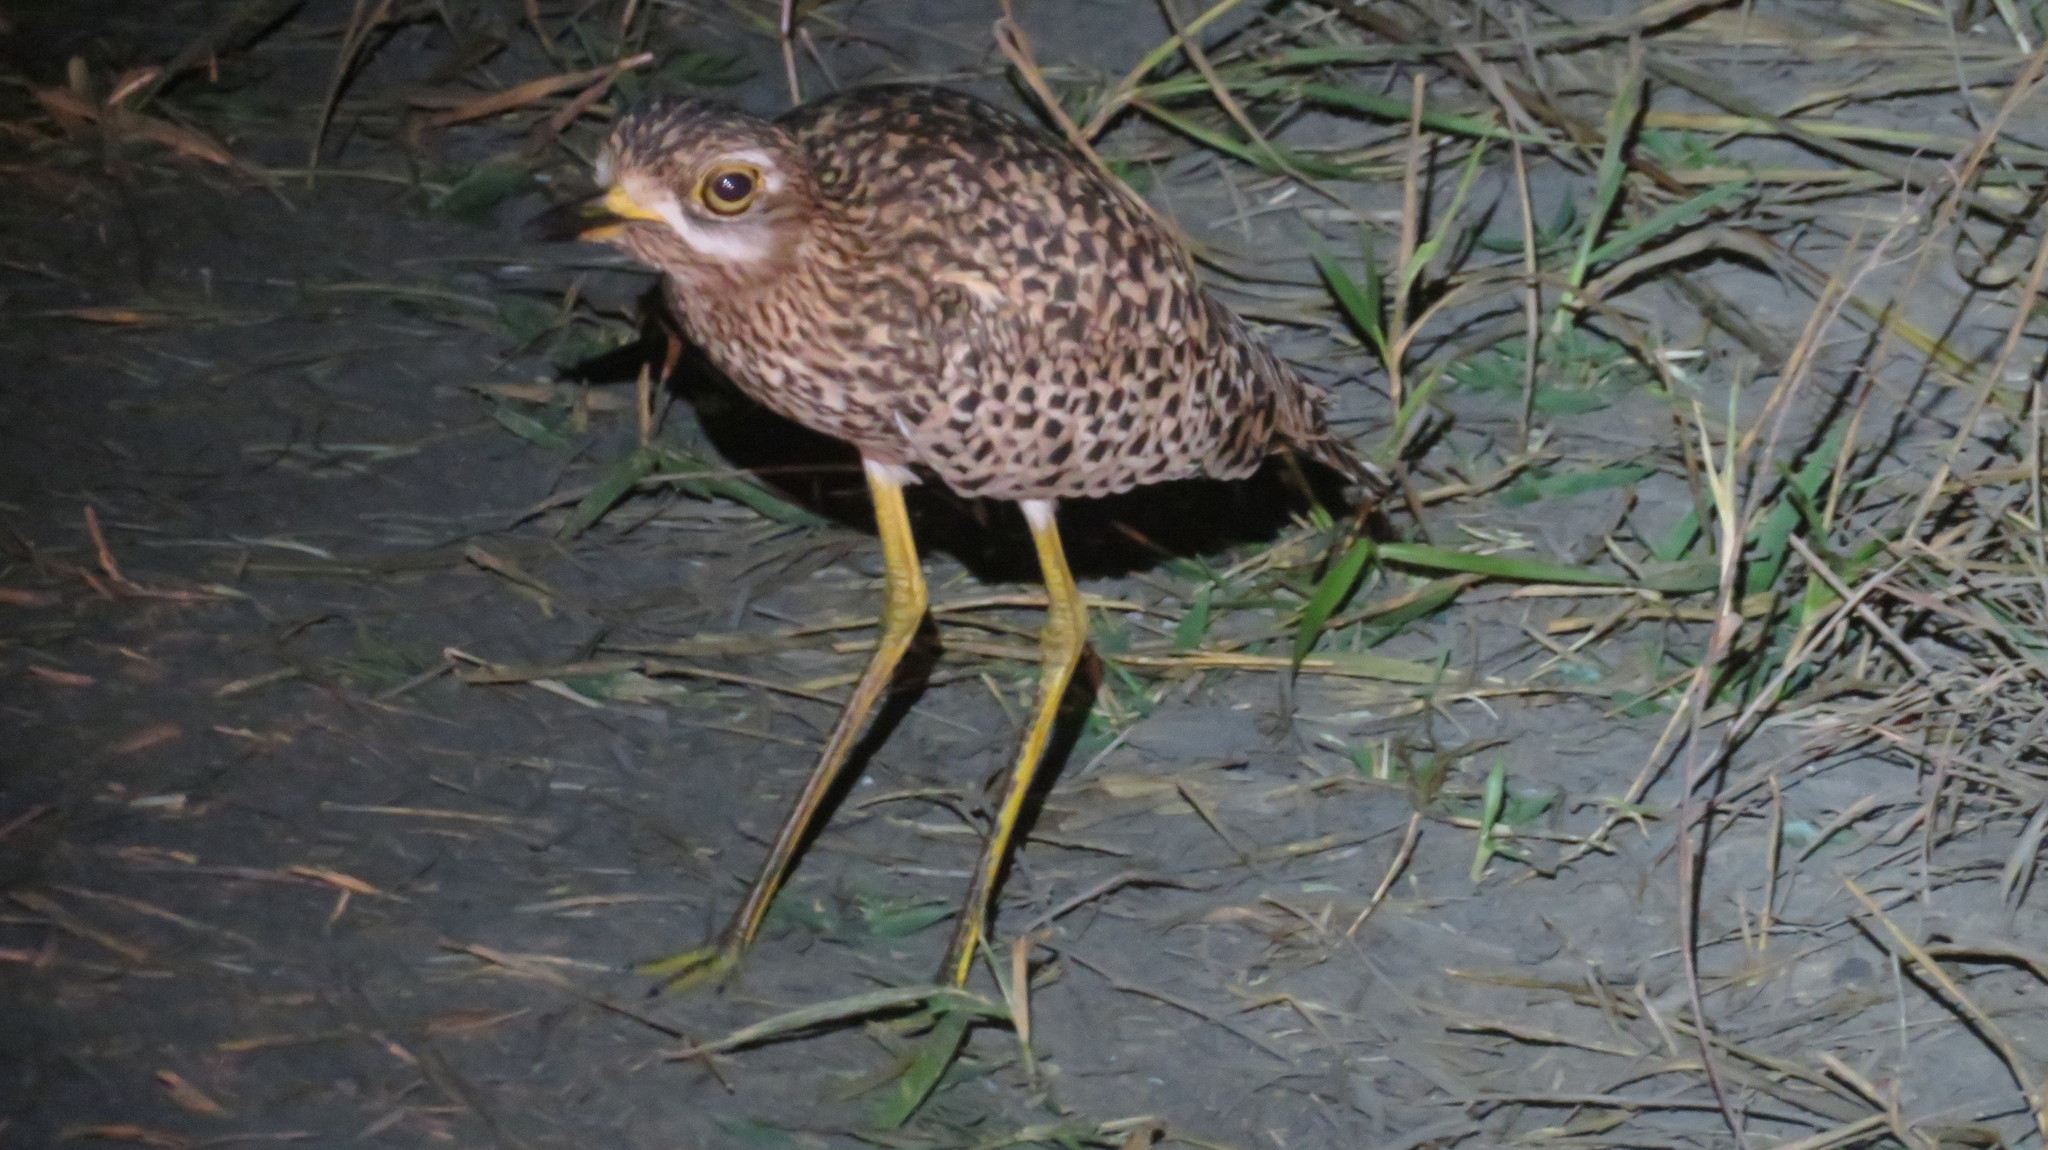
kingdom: Animalia
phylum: Chordata
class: Aves
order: Charadriiformes
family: Burhinidae
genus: Burhinus
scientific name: Burhinus capensis
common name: Spotted thick-knee
